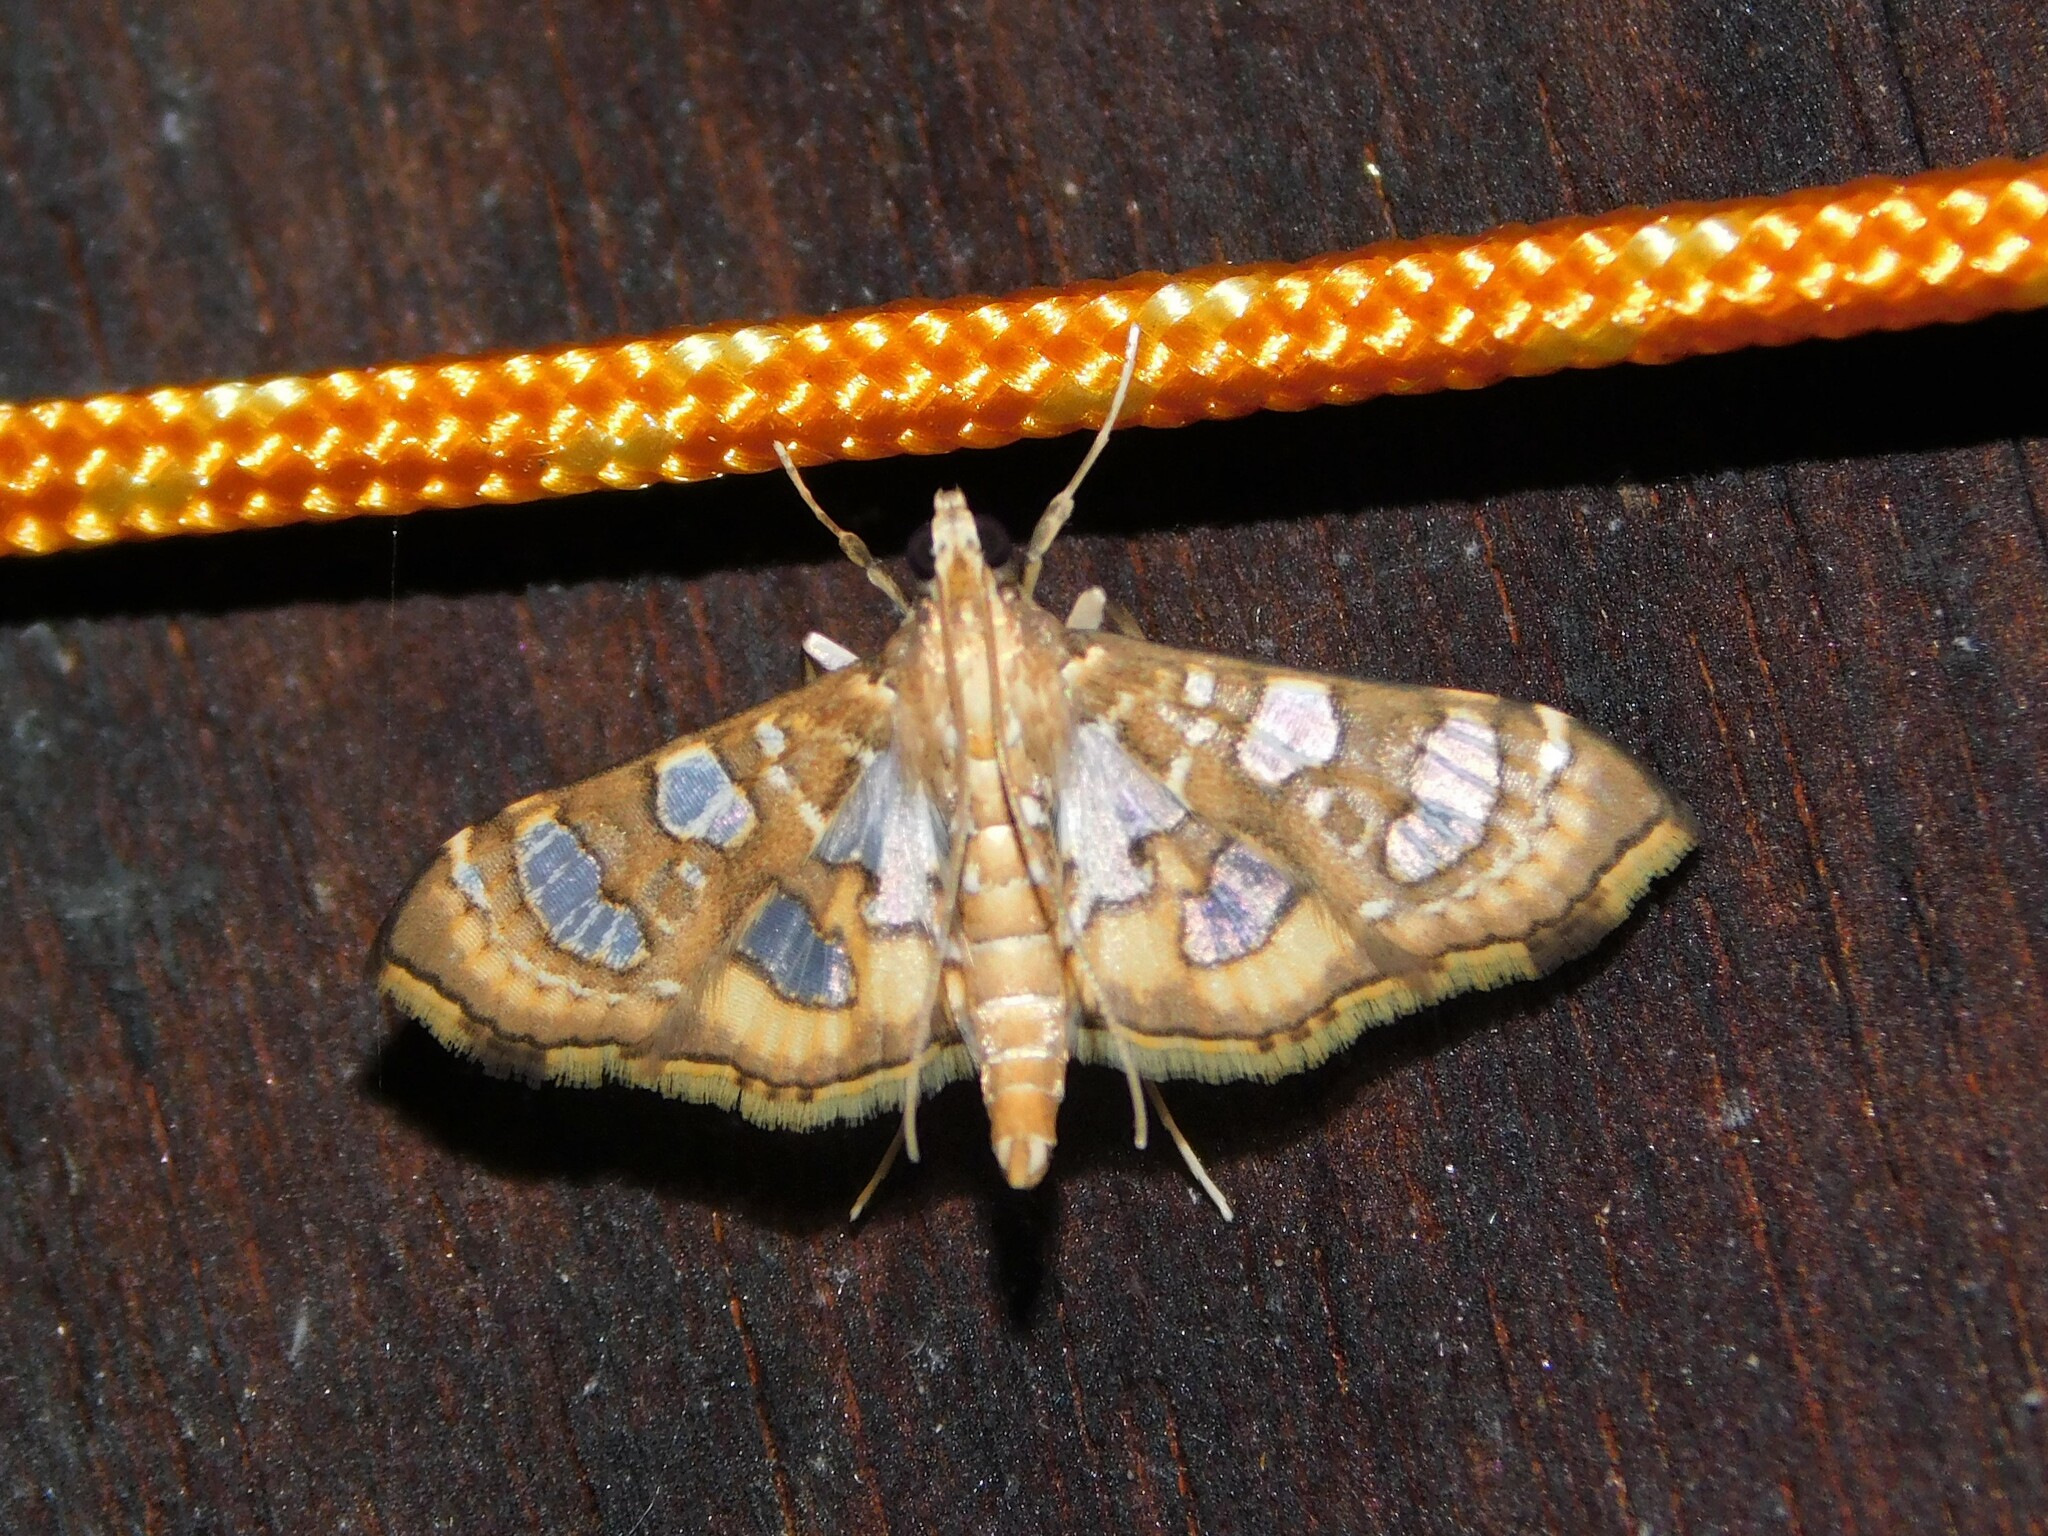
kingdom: Animalia
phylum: Arthropoda
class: Insecta
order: Lepidoptera
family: Crambidae
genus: Nausinoe
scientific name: Nausinoe quadrinalis
